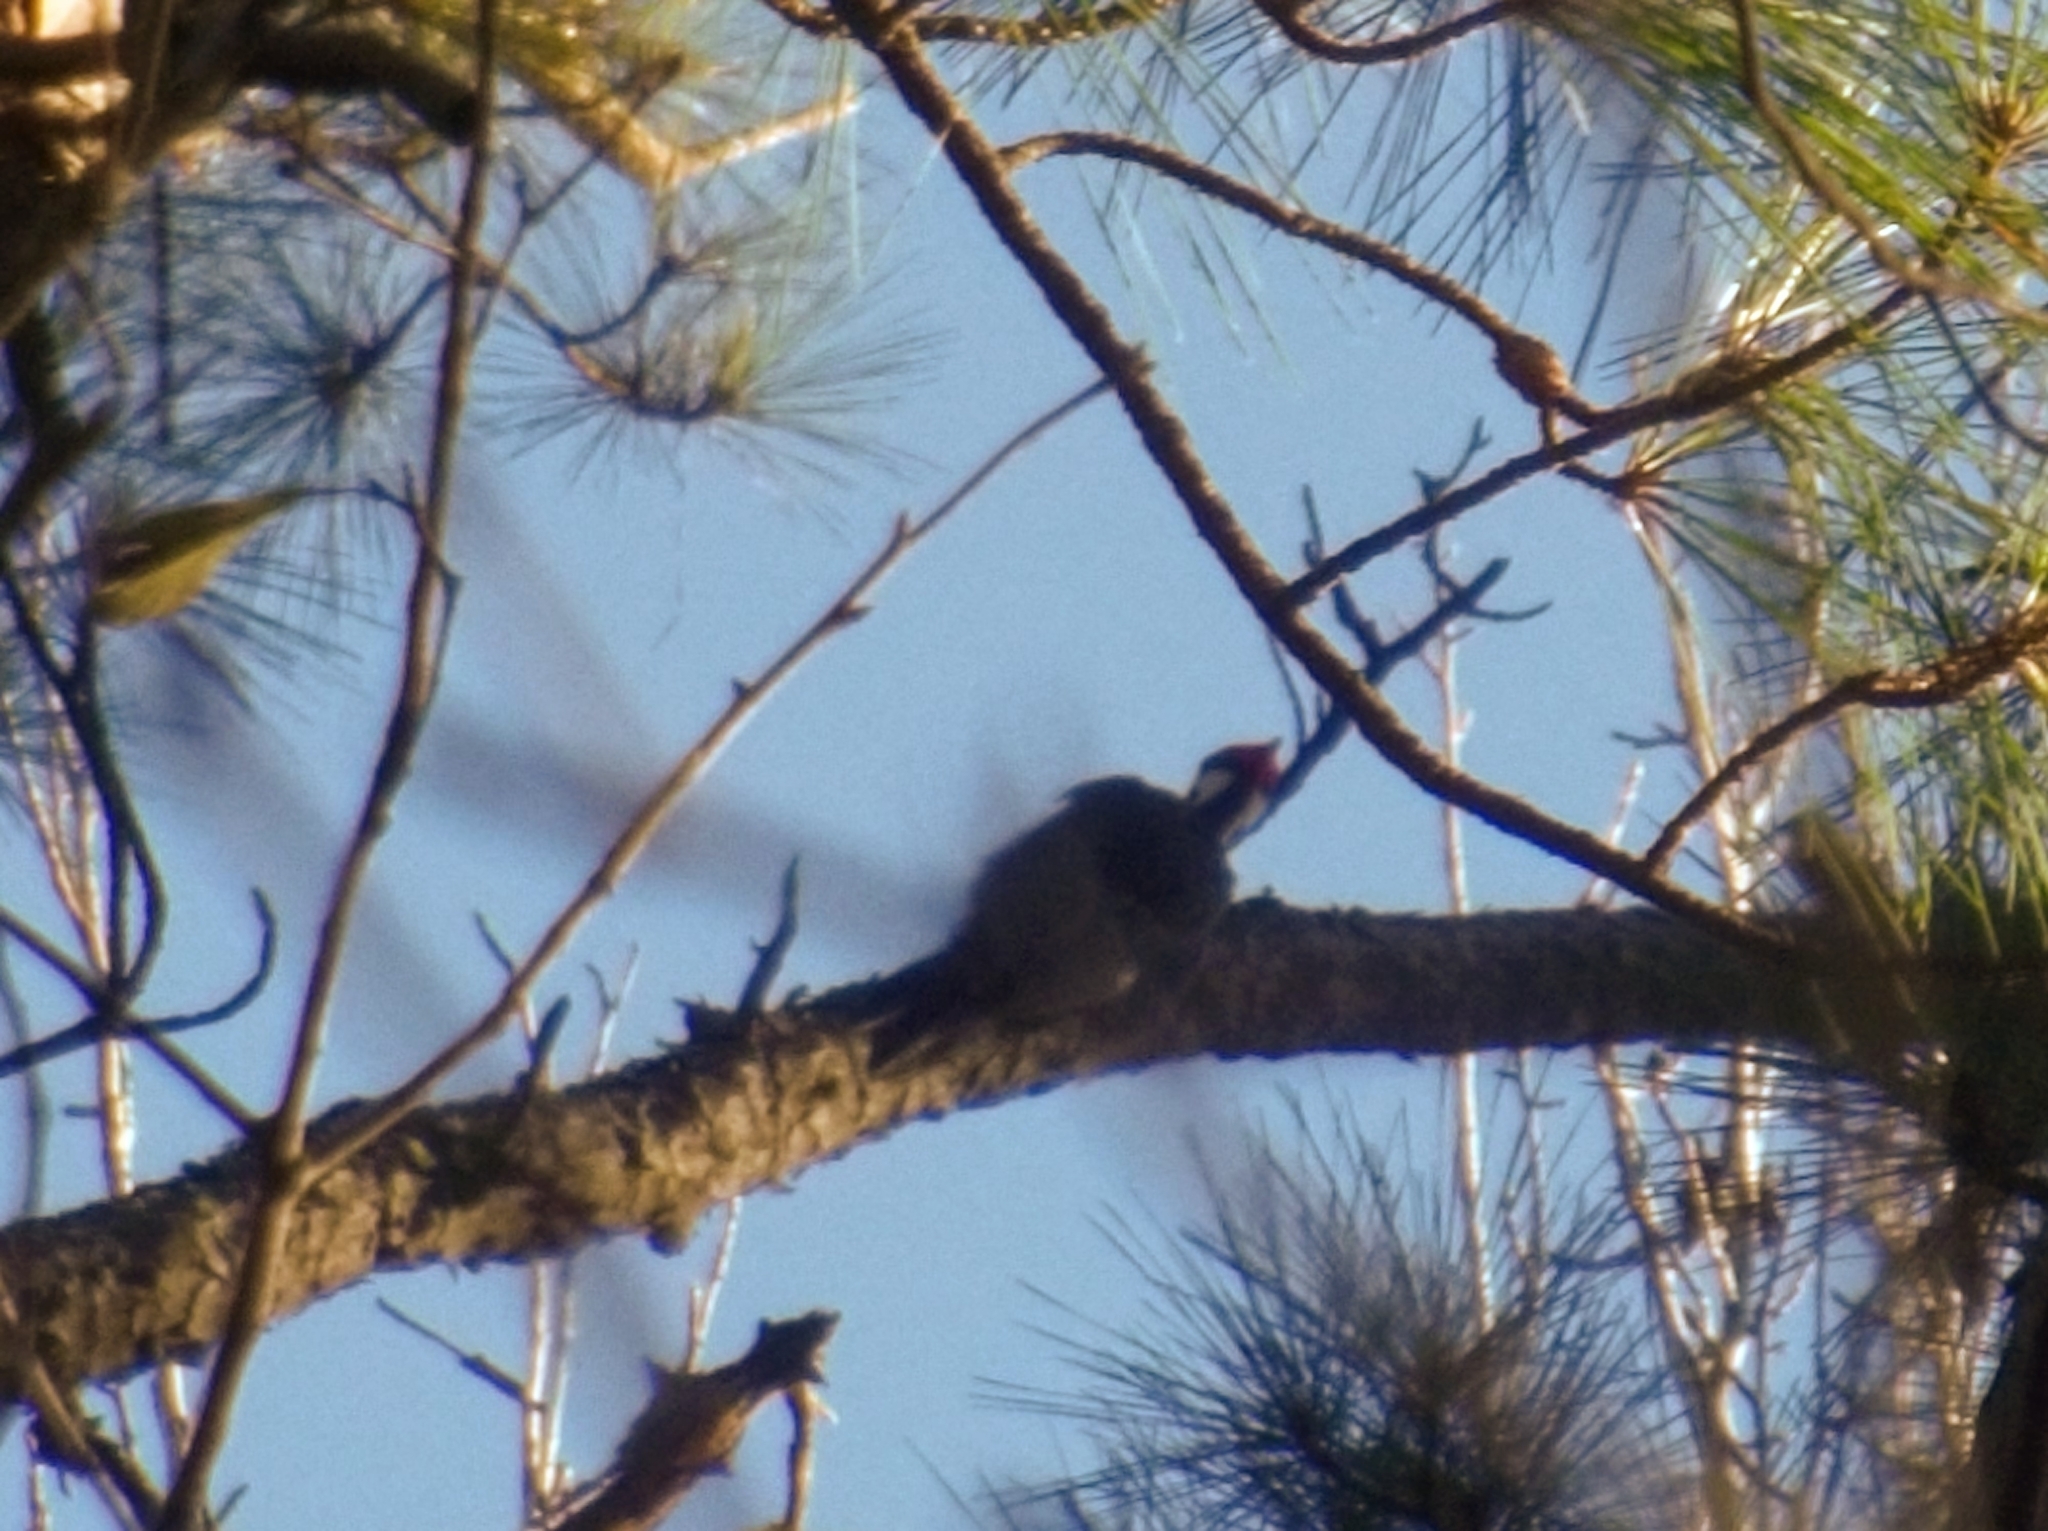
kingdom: Animalia
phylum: Chordata
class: Aves
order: Piciformes
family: Picidae
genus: Dryocopus
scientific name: Dryocopus pileatus
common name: Pileated woodpecker
